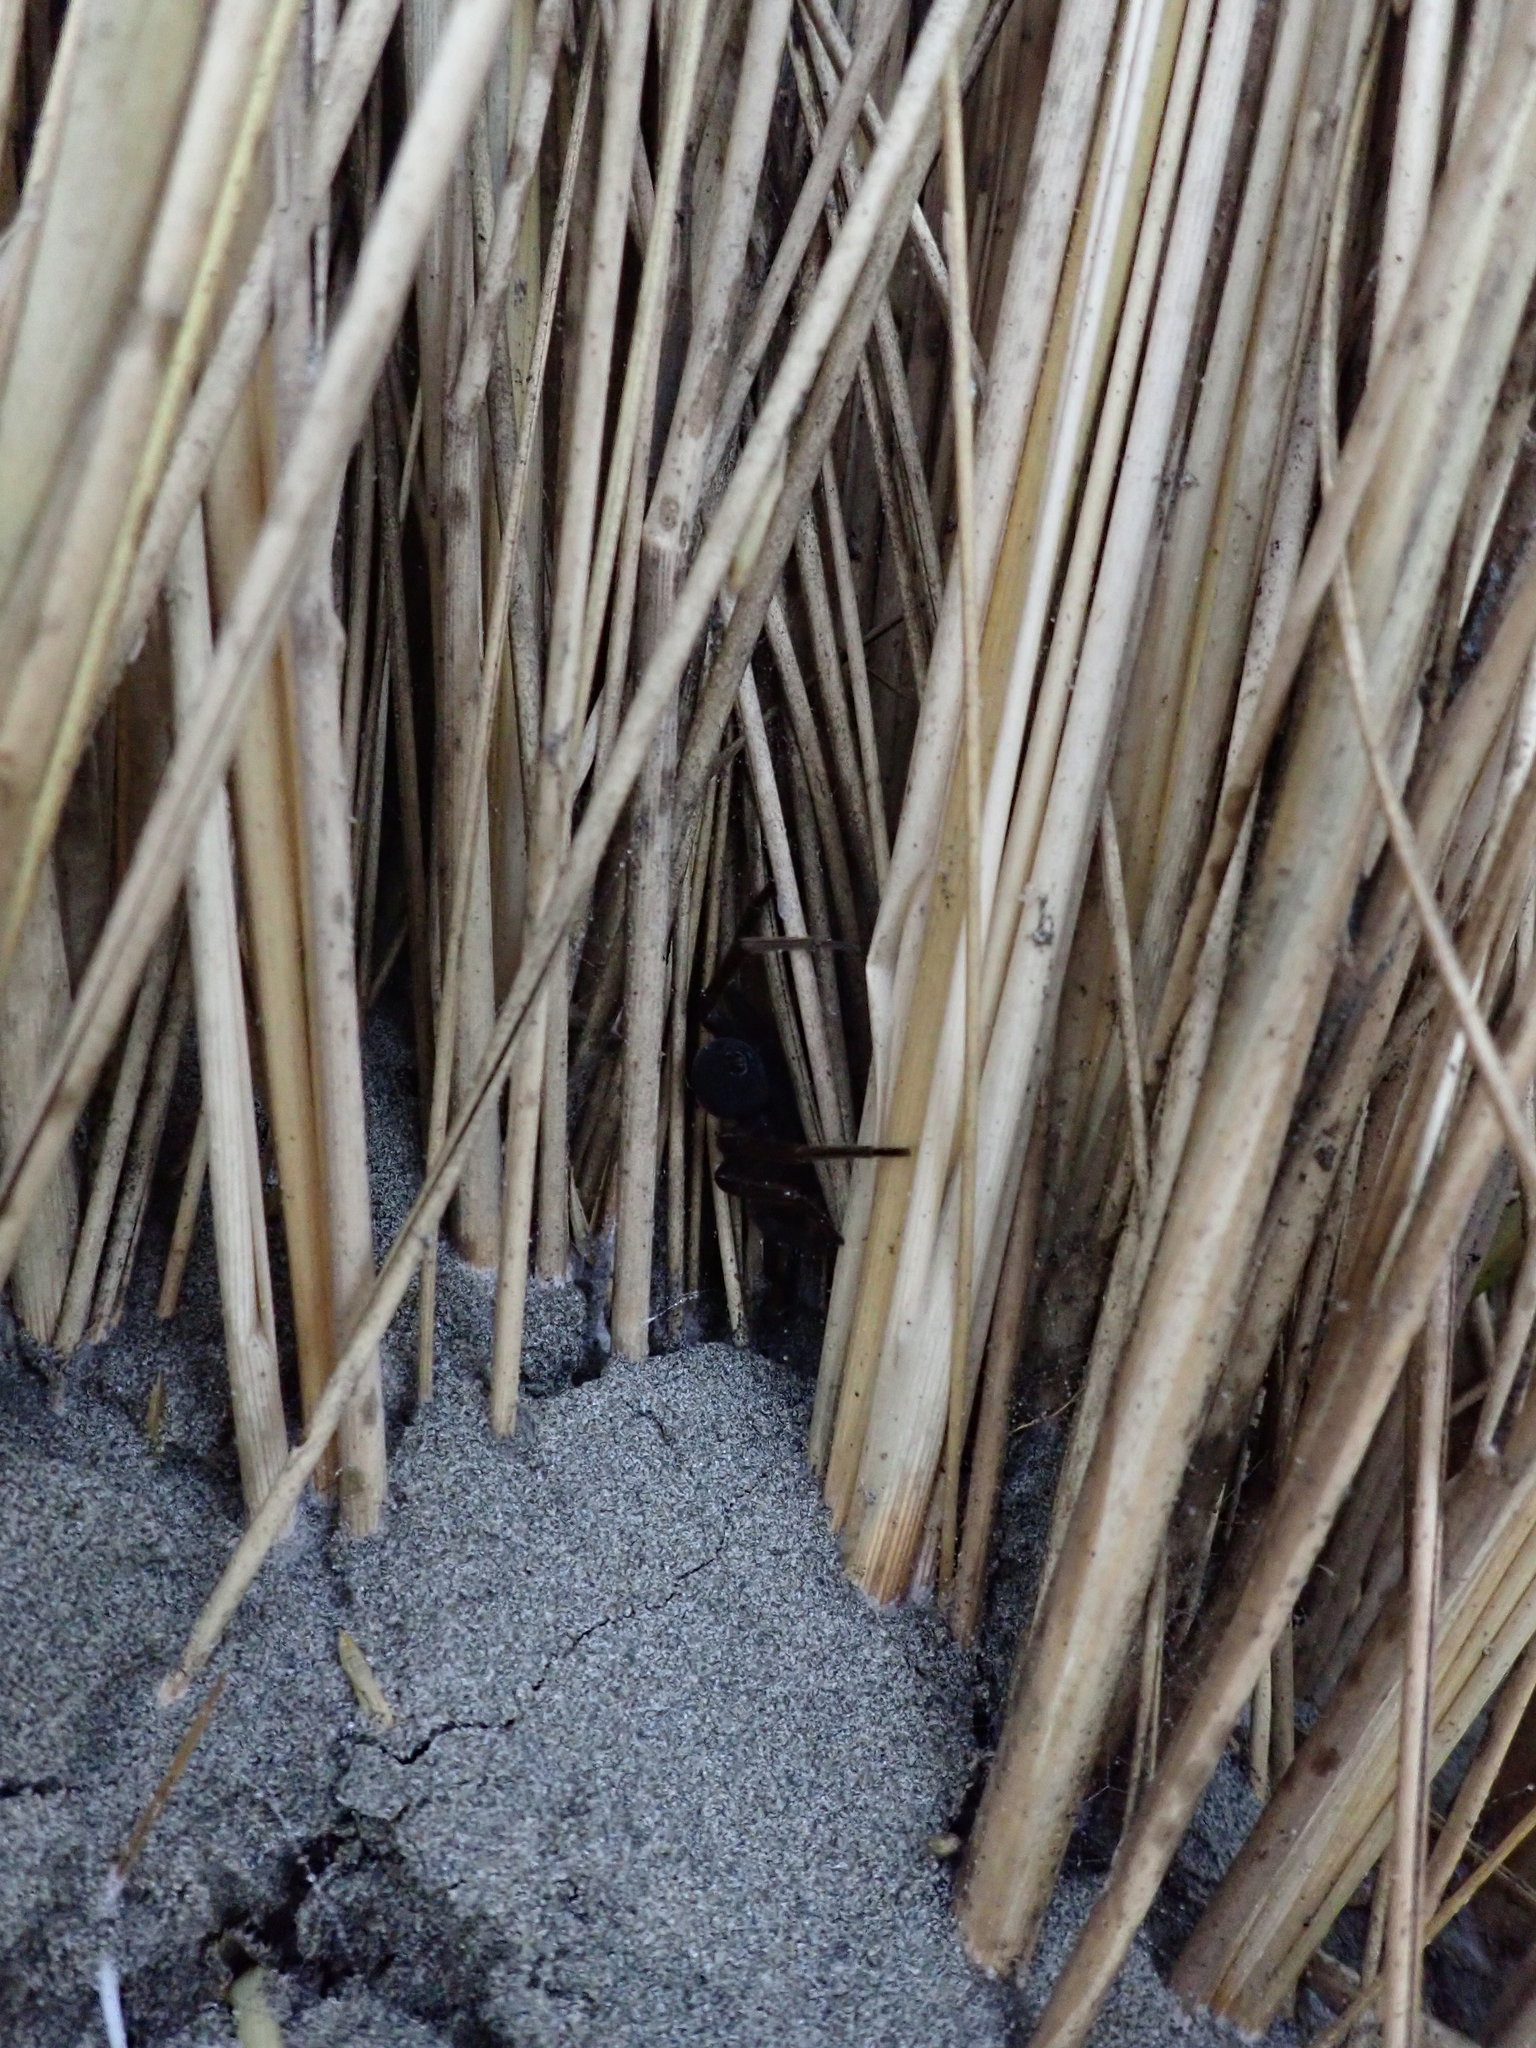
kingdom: Animalia
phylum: Arthropoda
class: Arachnida
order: Araneae
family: Pisauridae
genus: Dolomedes
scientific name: Dolomedes minor
